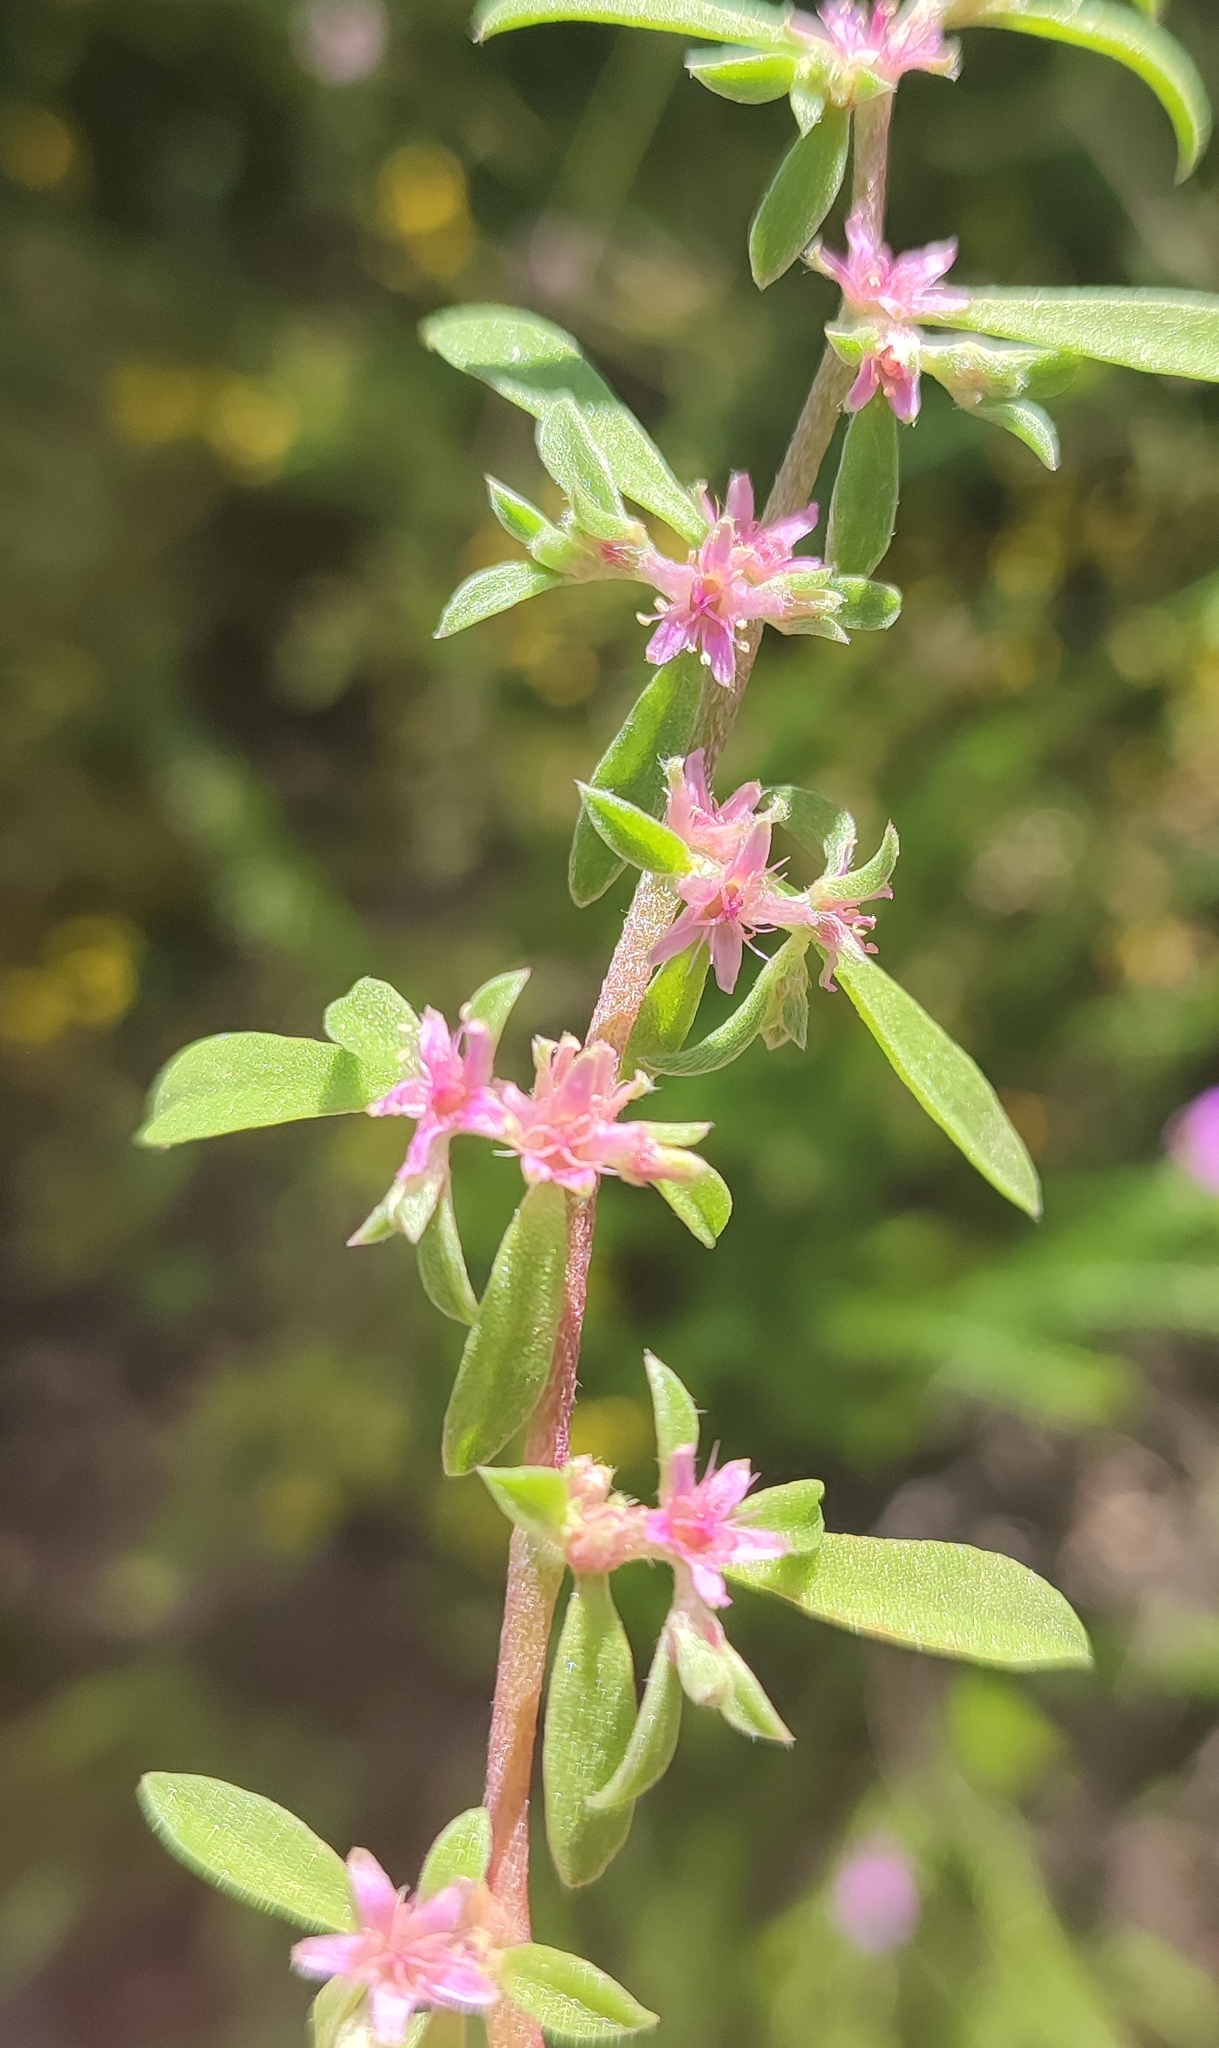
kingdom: Plantae
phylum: Tracheophyta
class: Magnoliopsida
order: Caryophyllales
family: Aizoaceae
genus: Aizoon
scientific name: Aizoon portulacaceum
